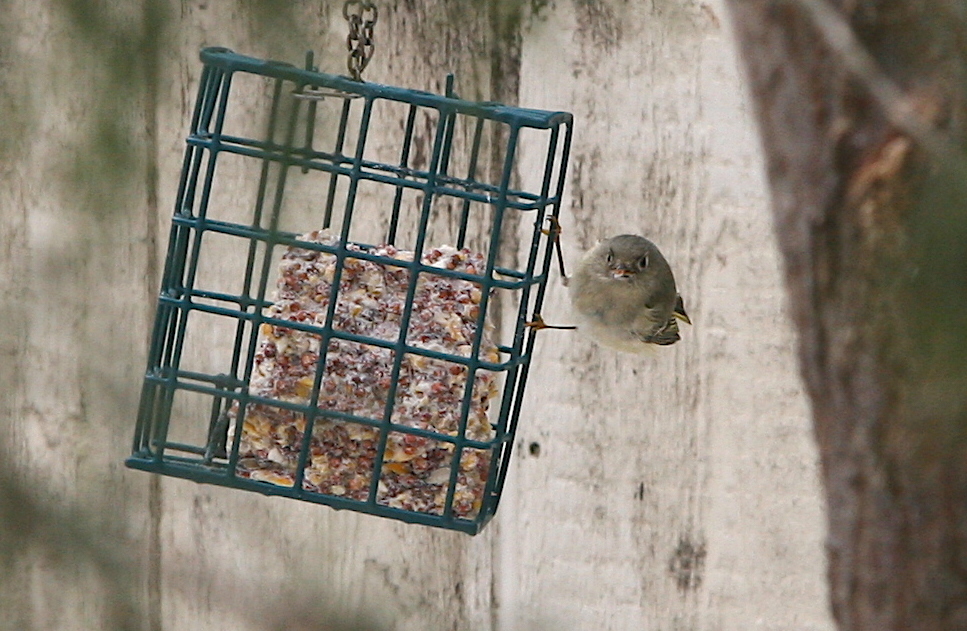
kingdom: Animalia
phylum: Chordata
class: Aves
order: Passeriformes
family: Regulidae
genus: Regulus
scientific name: Regulus calendula
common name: Ruby-crowned kinglet
